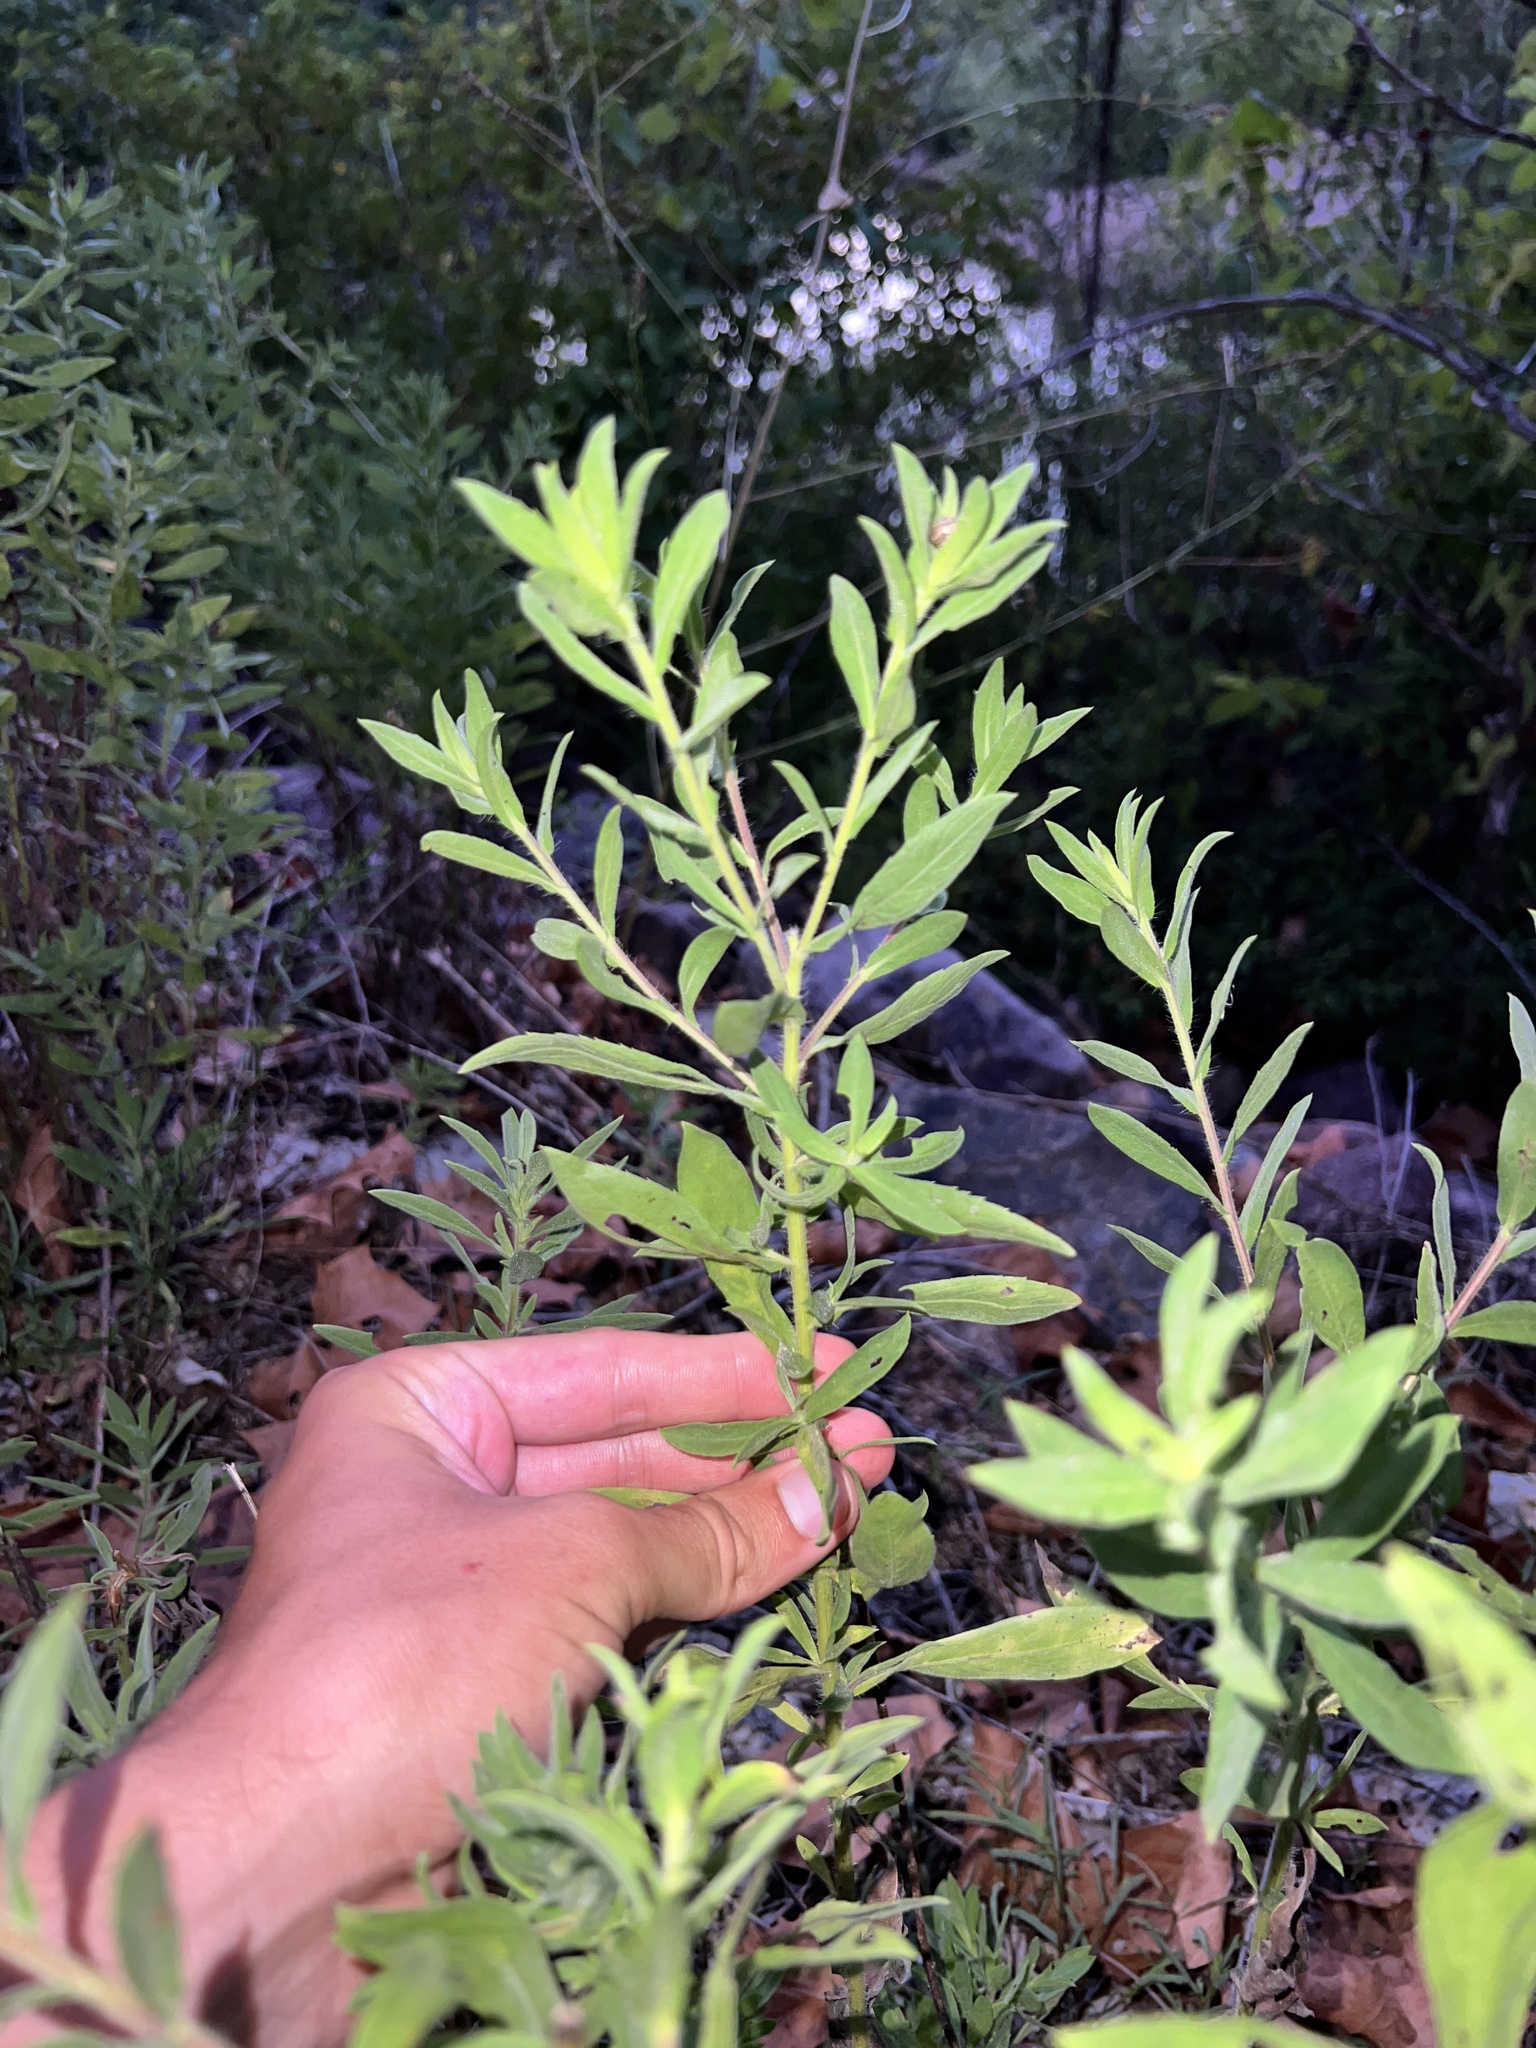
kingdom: Plantae
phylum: Tracheophyta
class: Magnoliopsida
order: Asterales
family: Asteraceae
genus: Heterotheca
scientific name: Heterotheca camporum
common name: Prairie golden-aster
